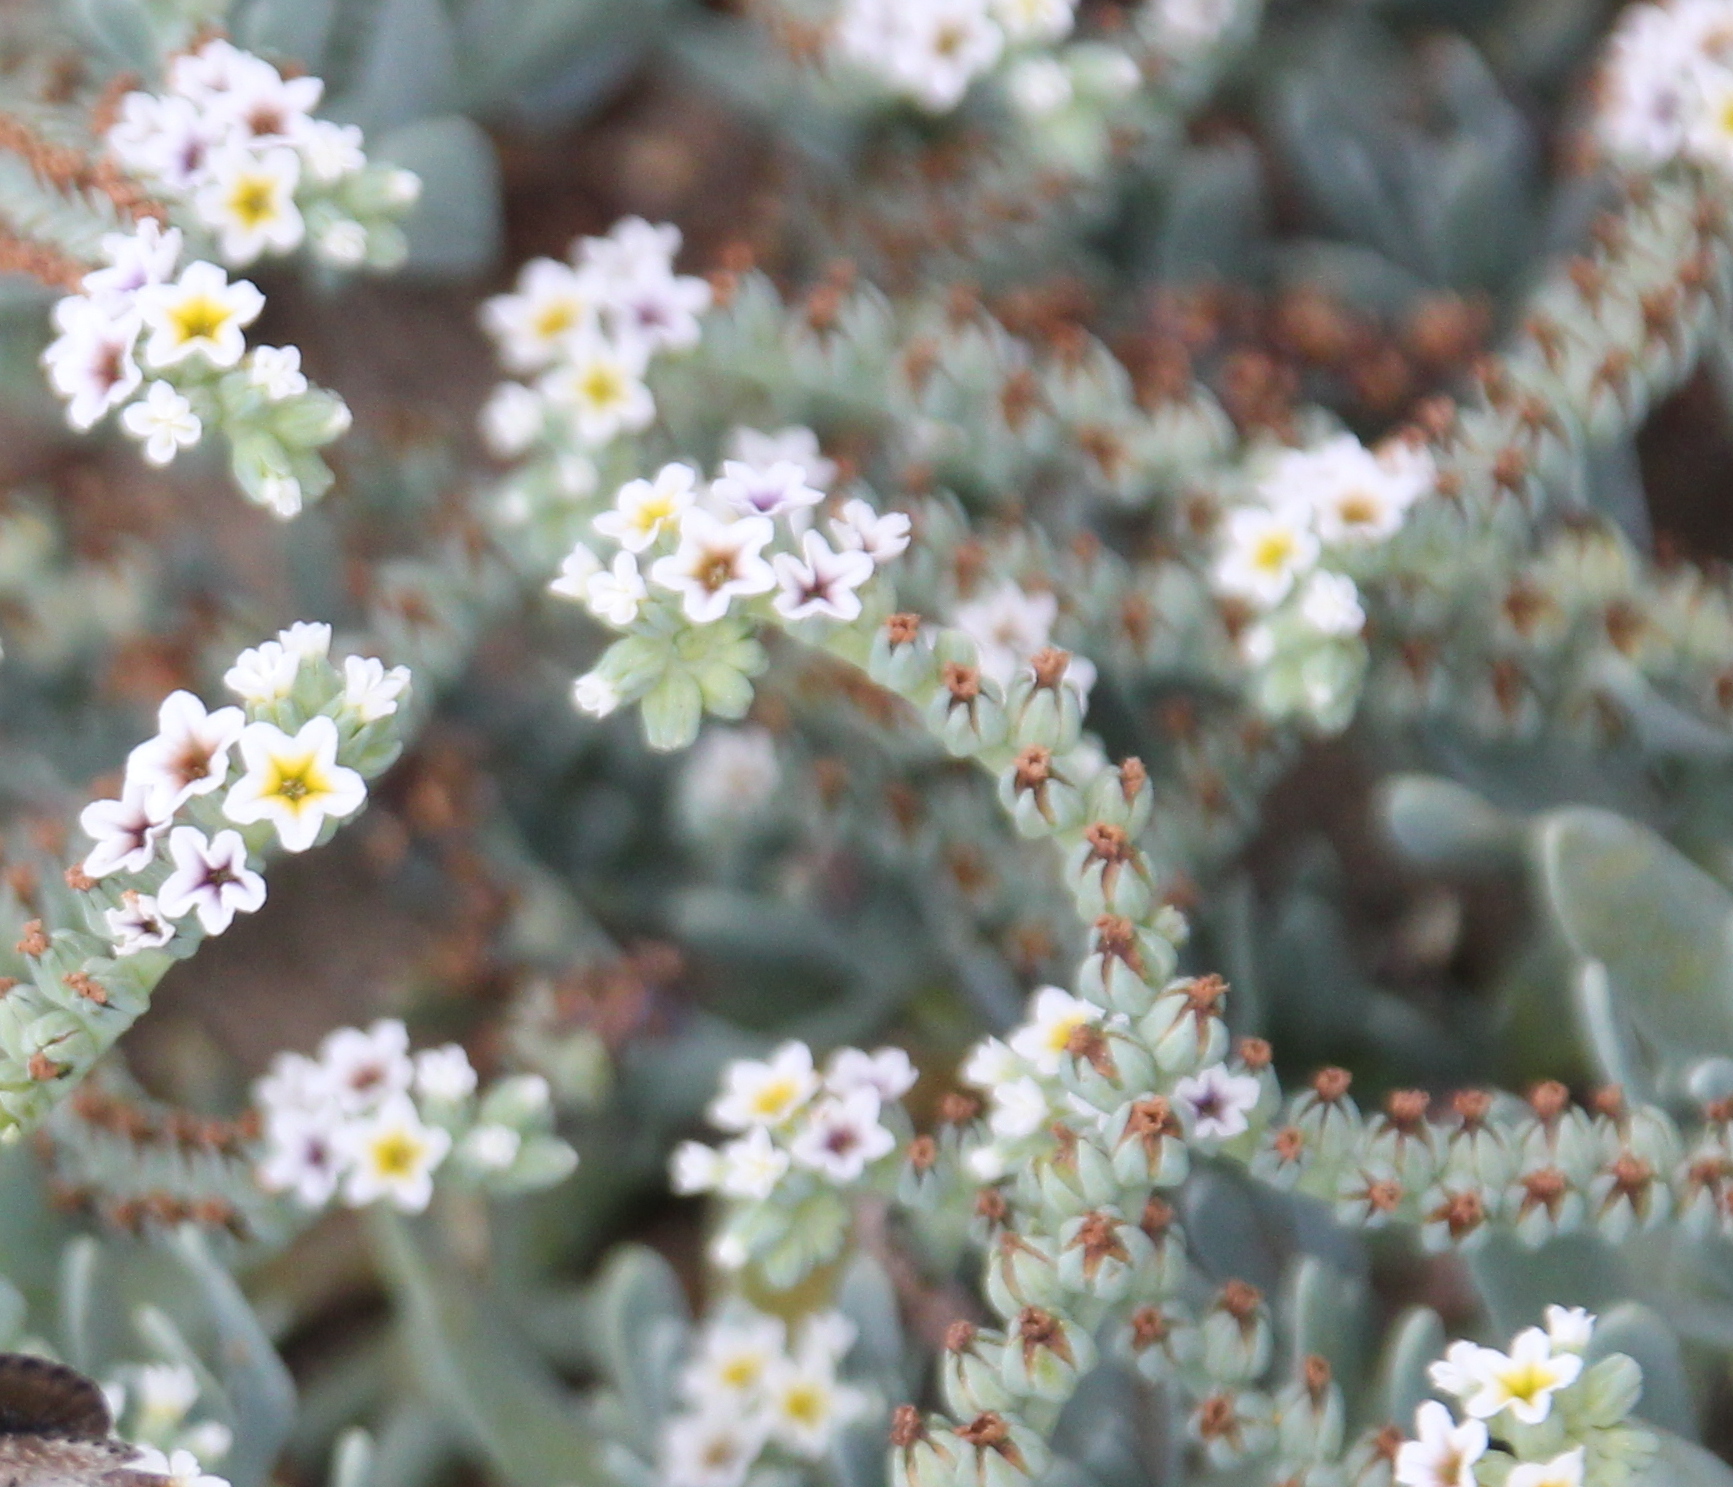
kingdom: Plantae
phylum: Tracheophyta
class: Magnoliopsida
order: Boraginales
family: Heliotropiaceae
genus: Heliotropium
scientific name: Heliotropium curassavicum
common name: Seaside heliotrope
